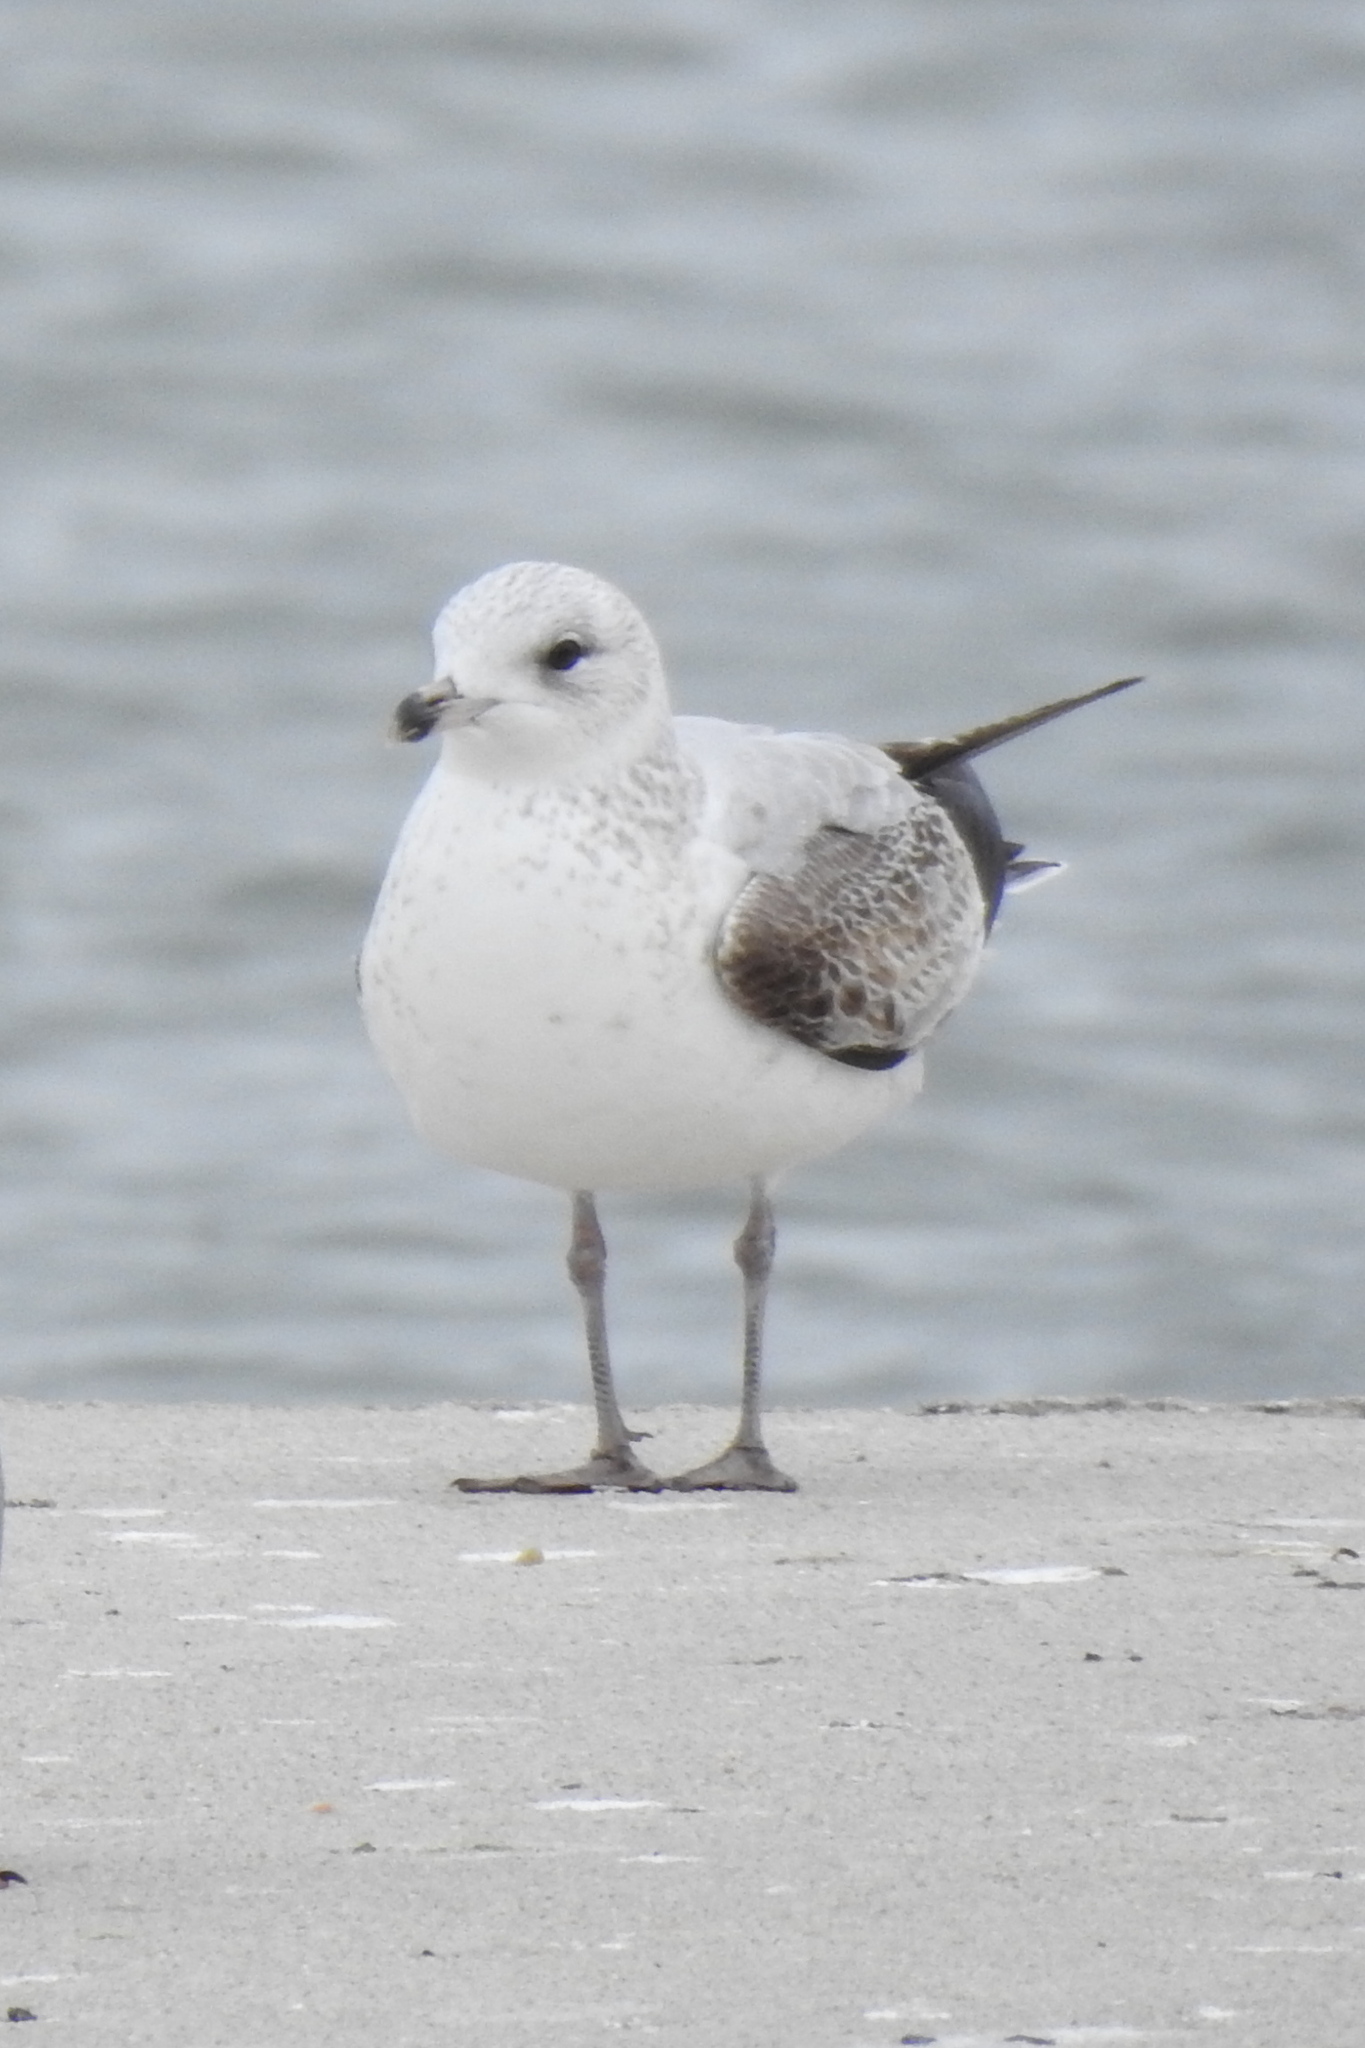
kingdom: Animalia
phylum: Chordata
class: Aves
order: Charadriiformes
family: Laridae
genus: Larus
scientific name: Larus delawarensis
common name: Ring-billed gull
